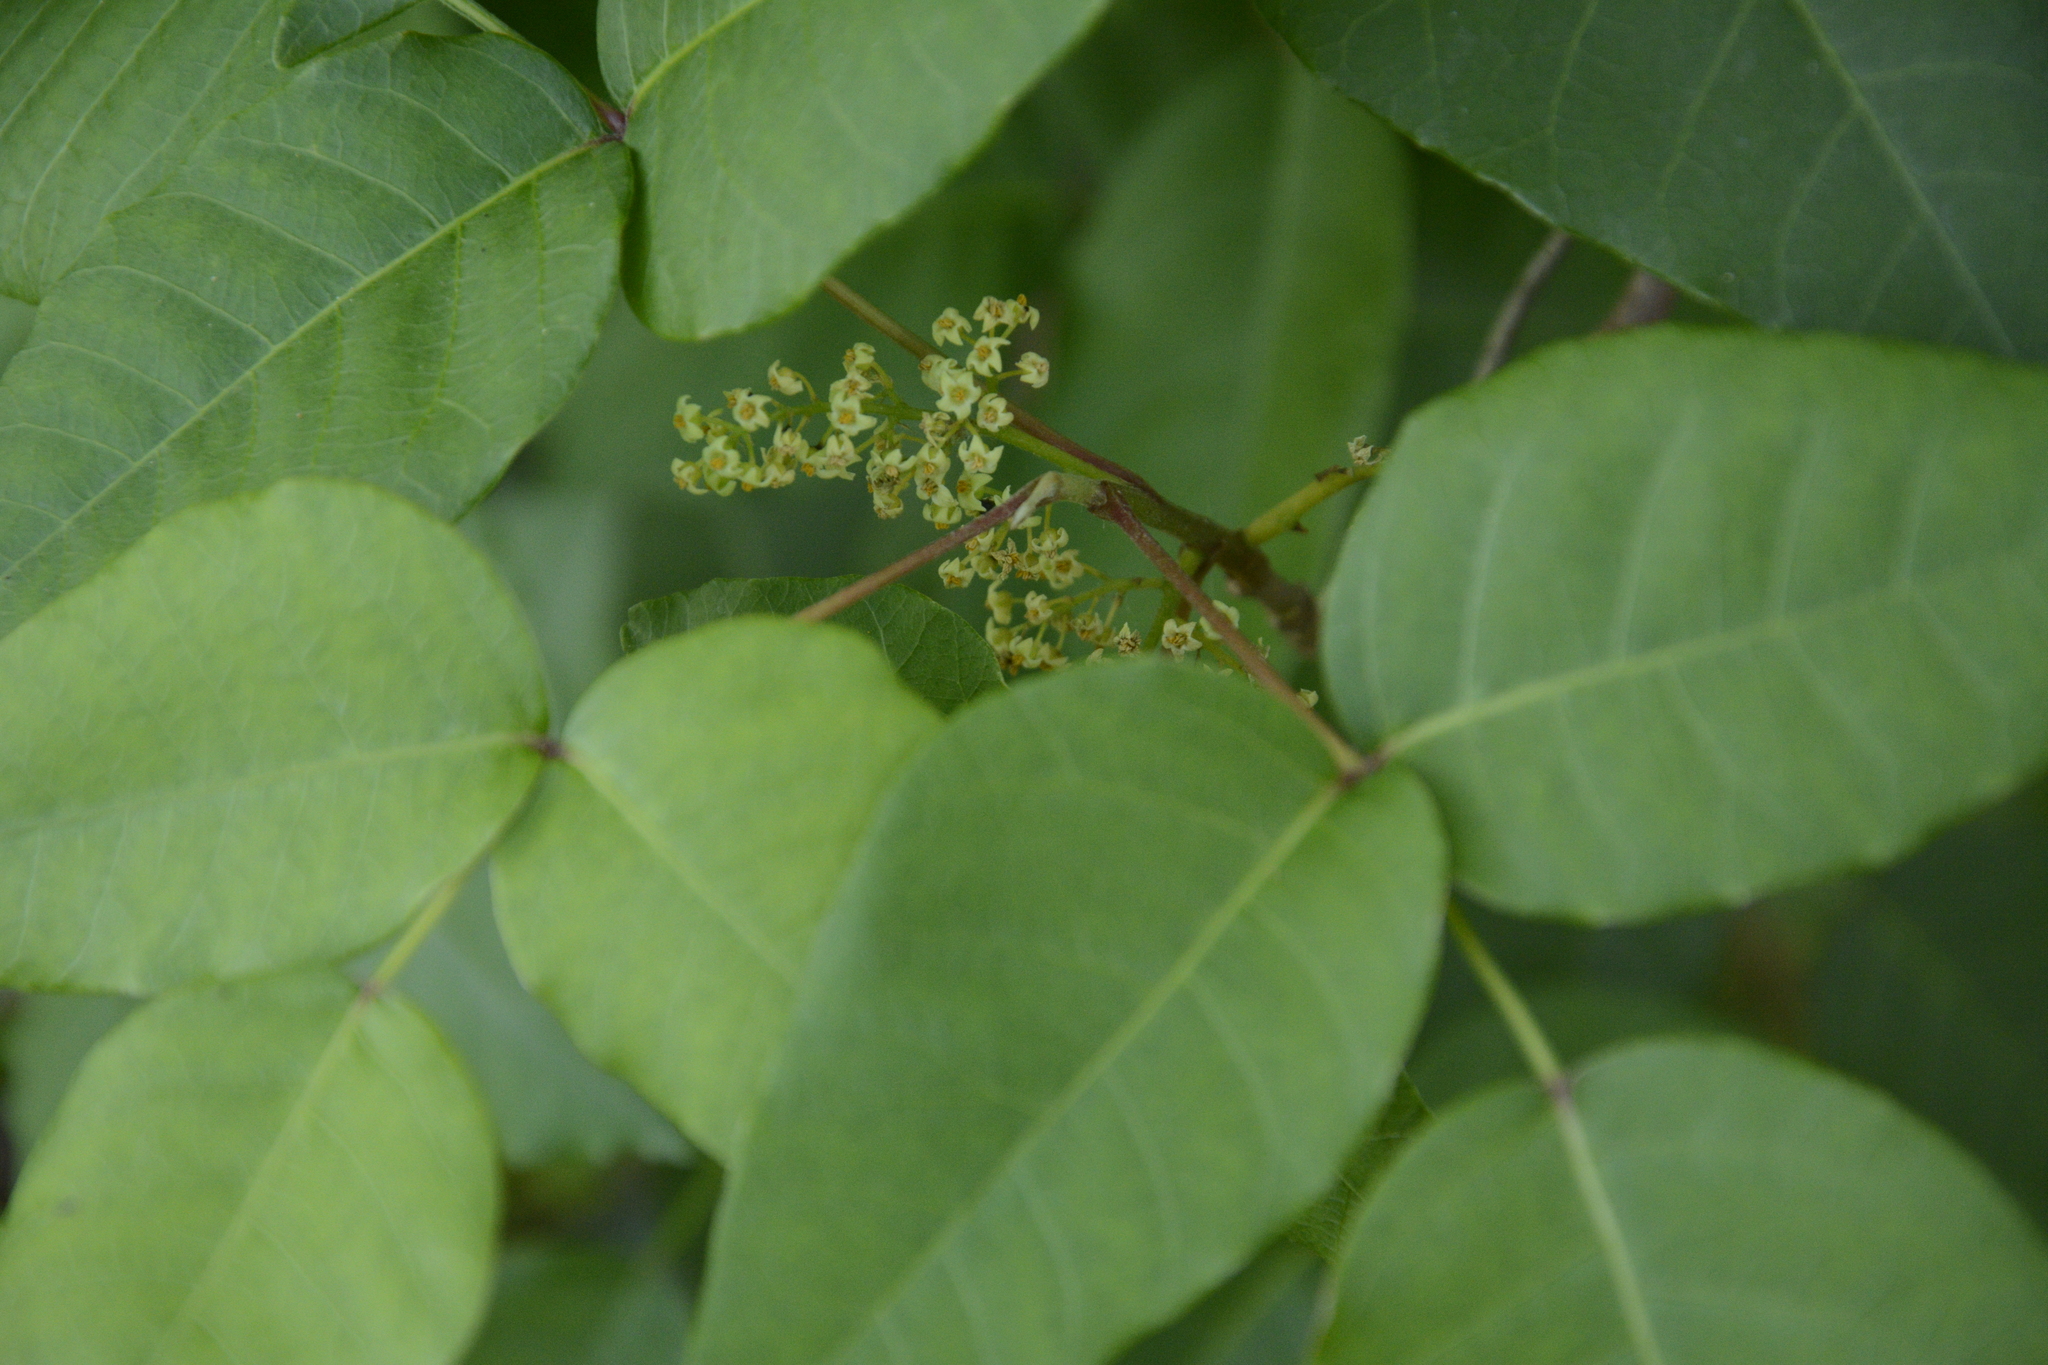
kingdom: Plantae
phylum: Tracheophyta
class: Magnoliopsida
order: Sapindales
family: Anacardiaceae
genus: Toxicodendron
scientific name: Toxicodendron radicans
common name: Poison ivy
